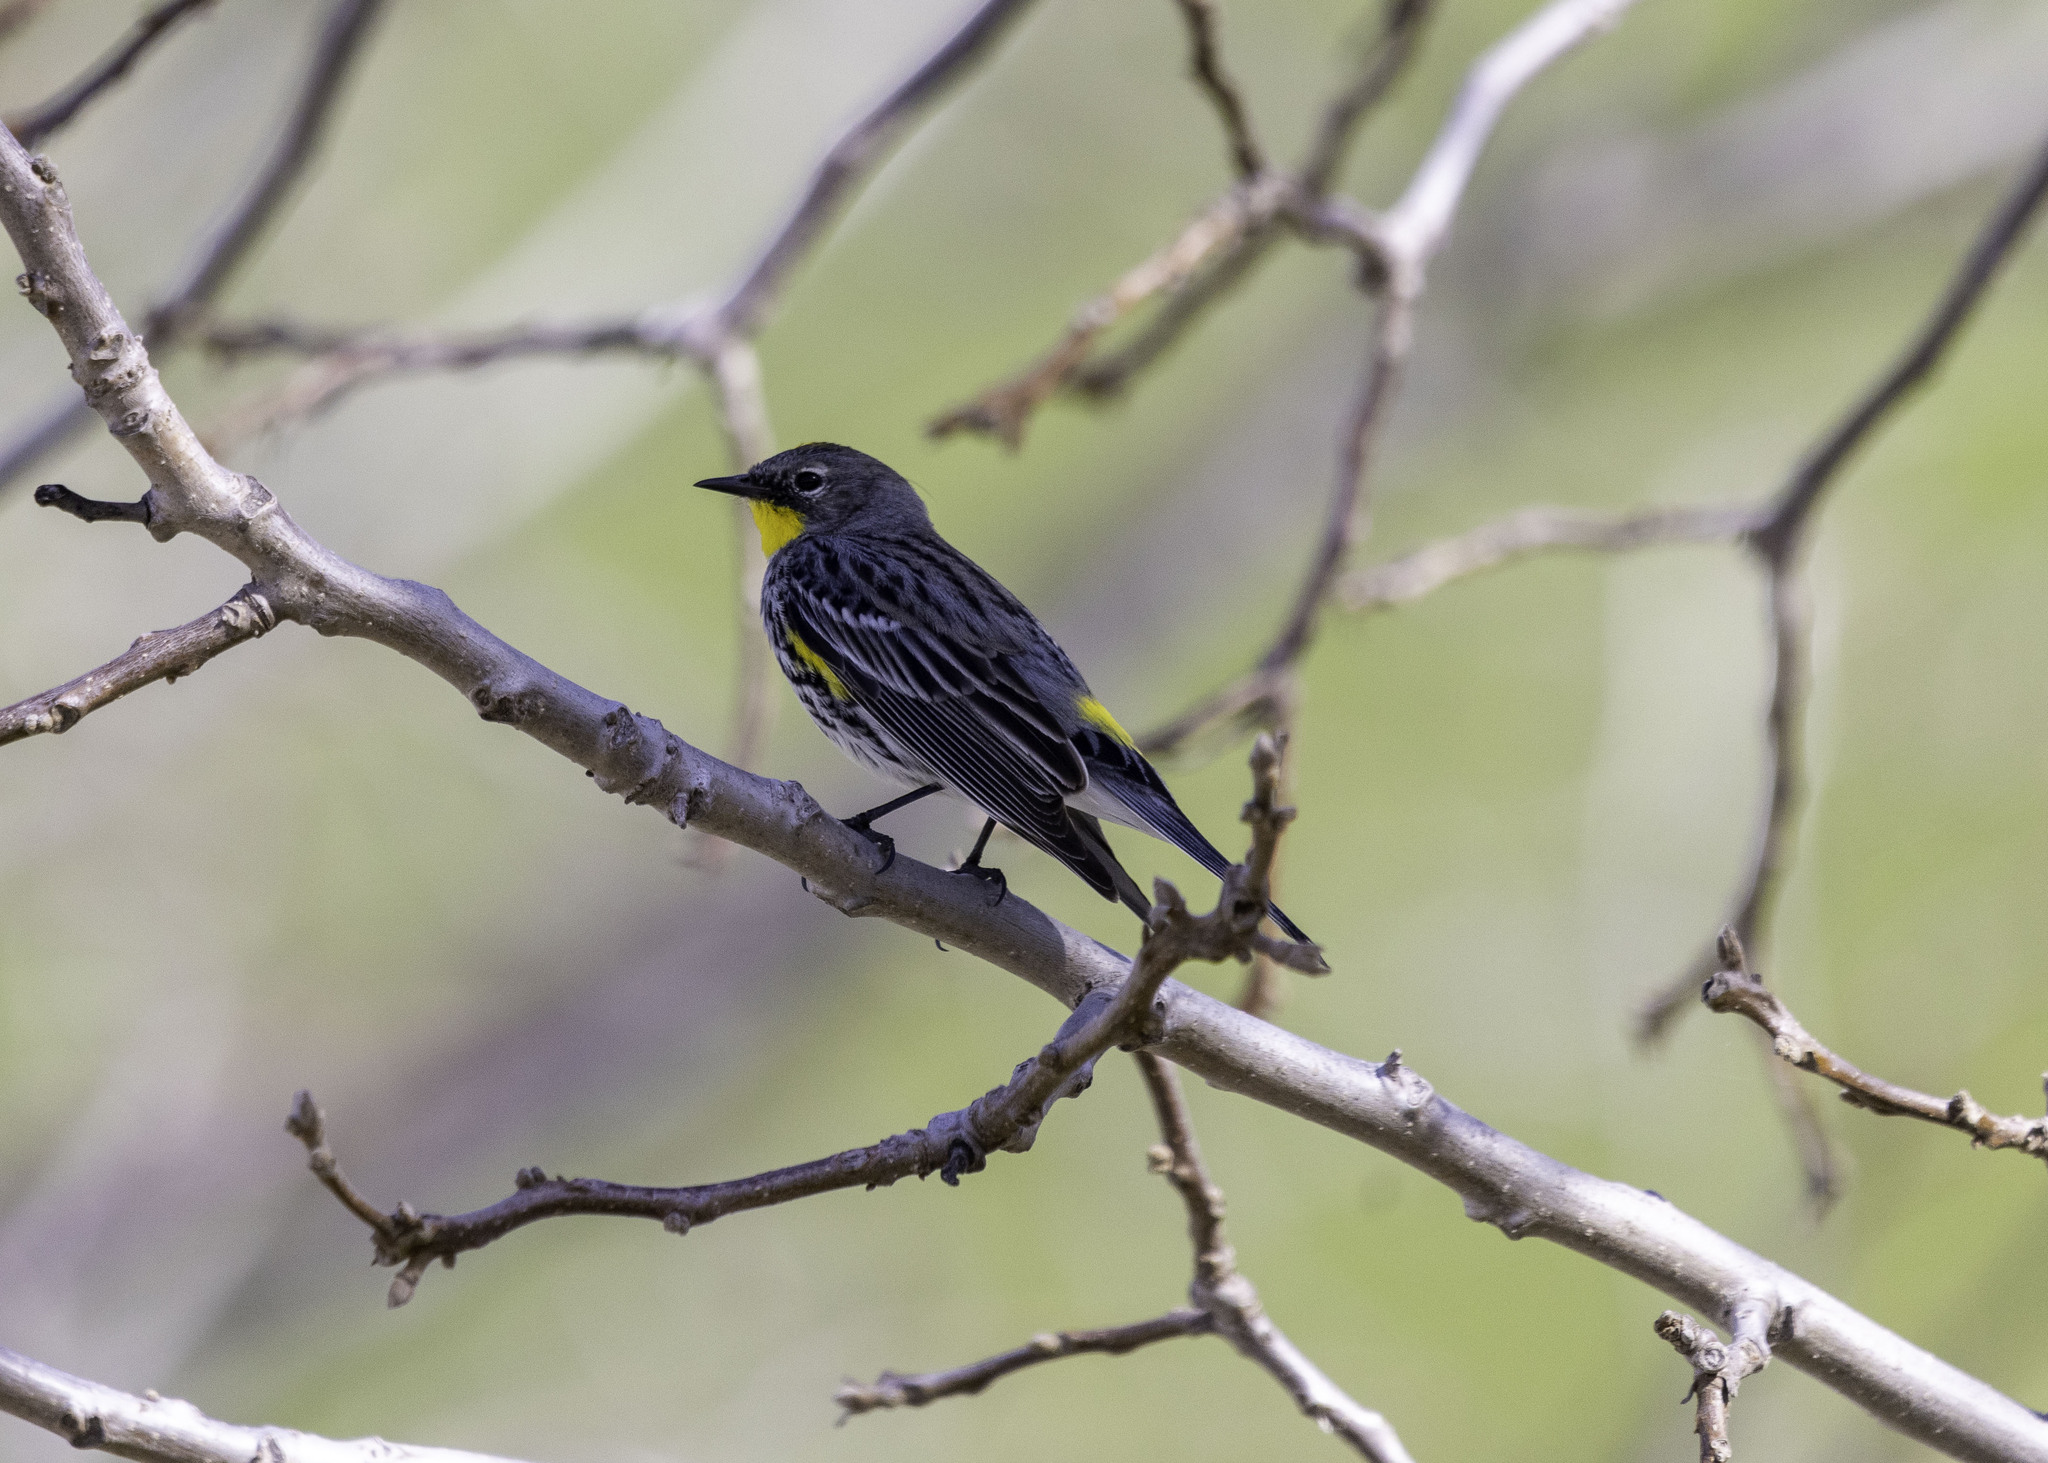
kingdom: Animalia
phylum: Chordata
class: Aves
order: Passeriformes
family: Parulidae
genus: Setophaga
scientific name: Setophaga coronata
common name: Myrtle warbler
